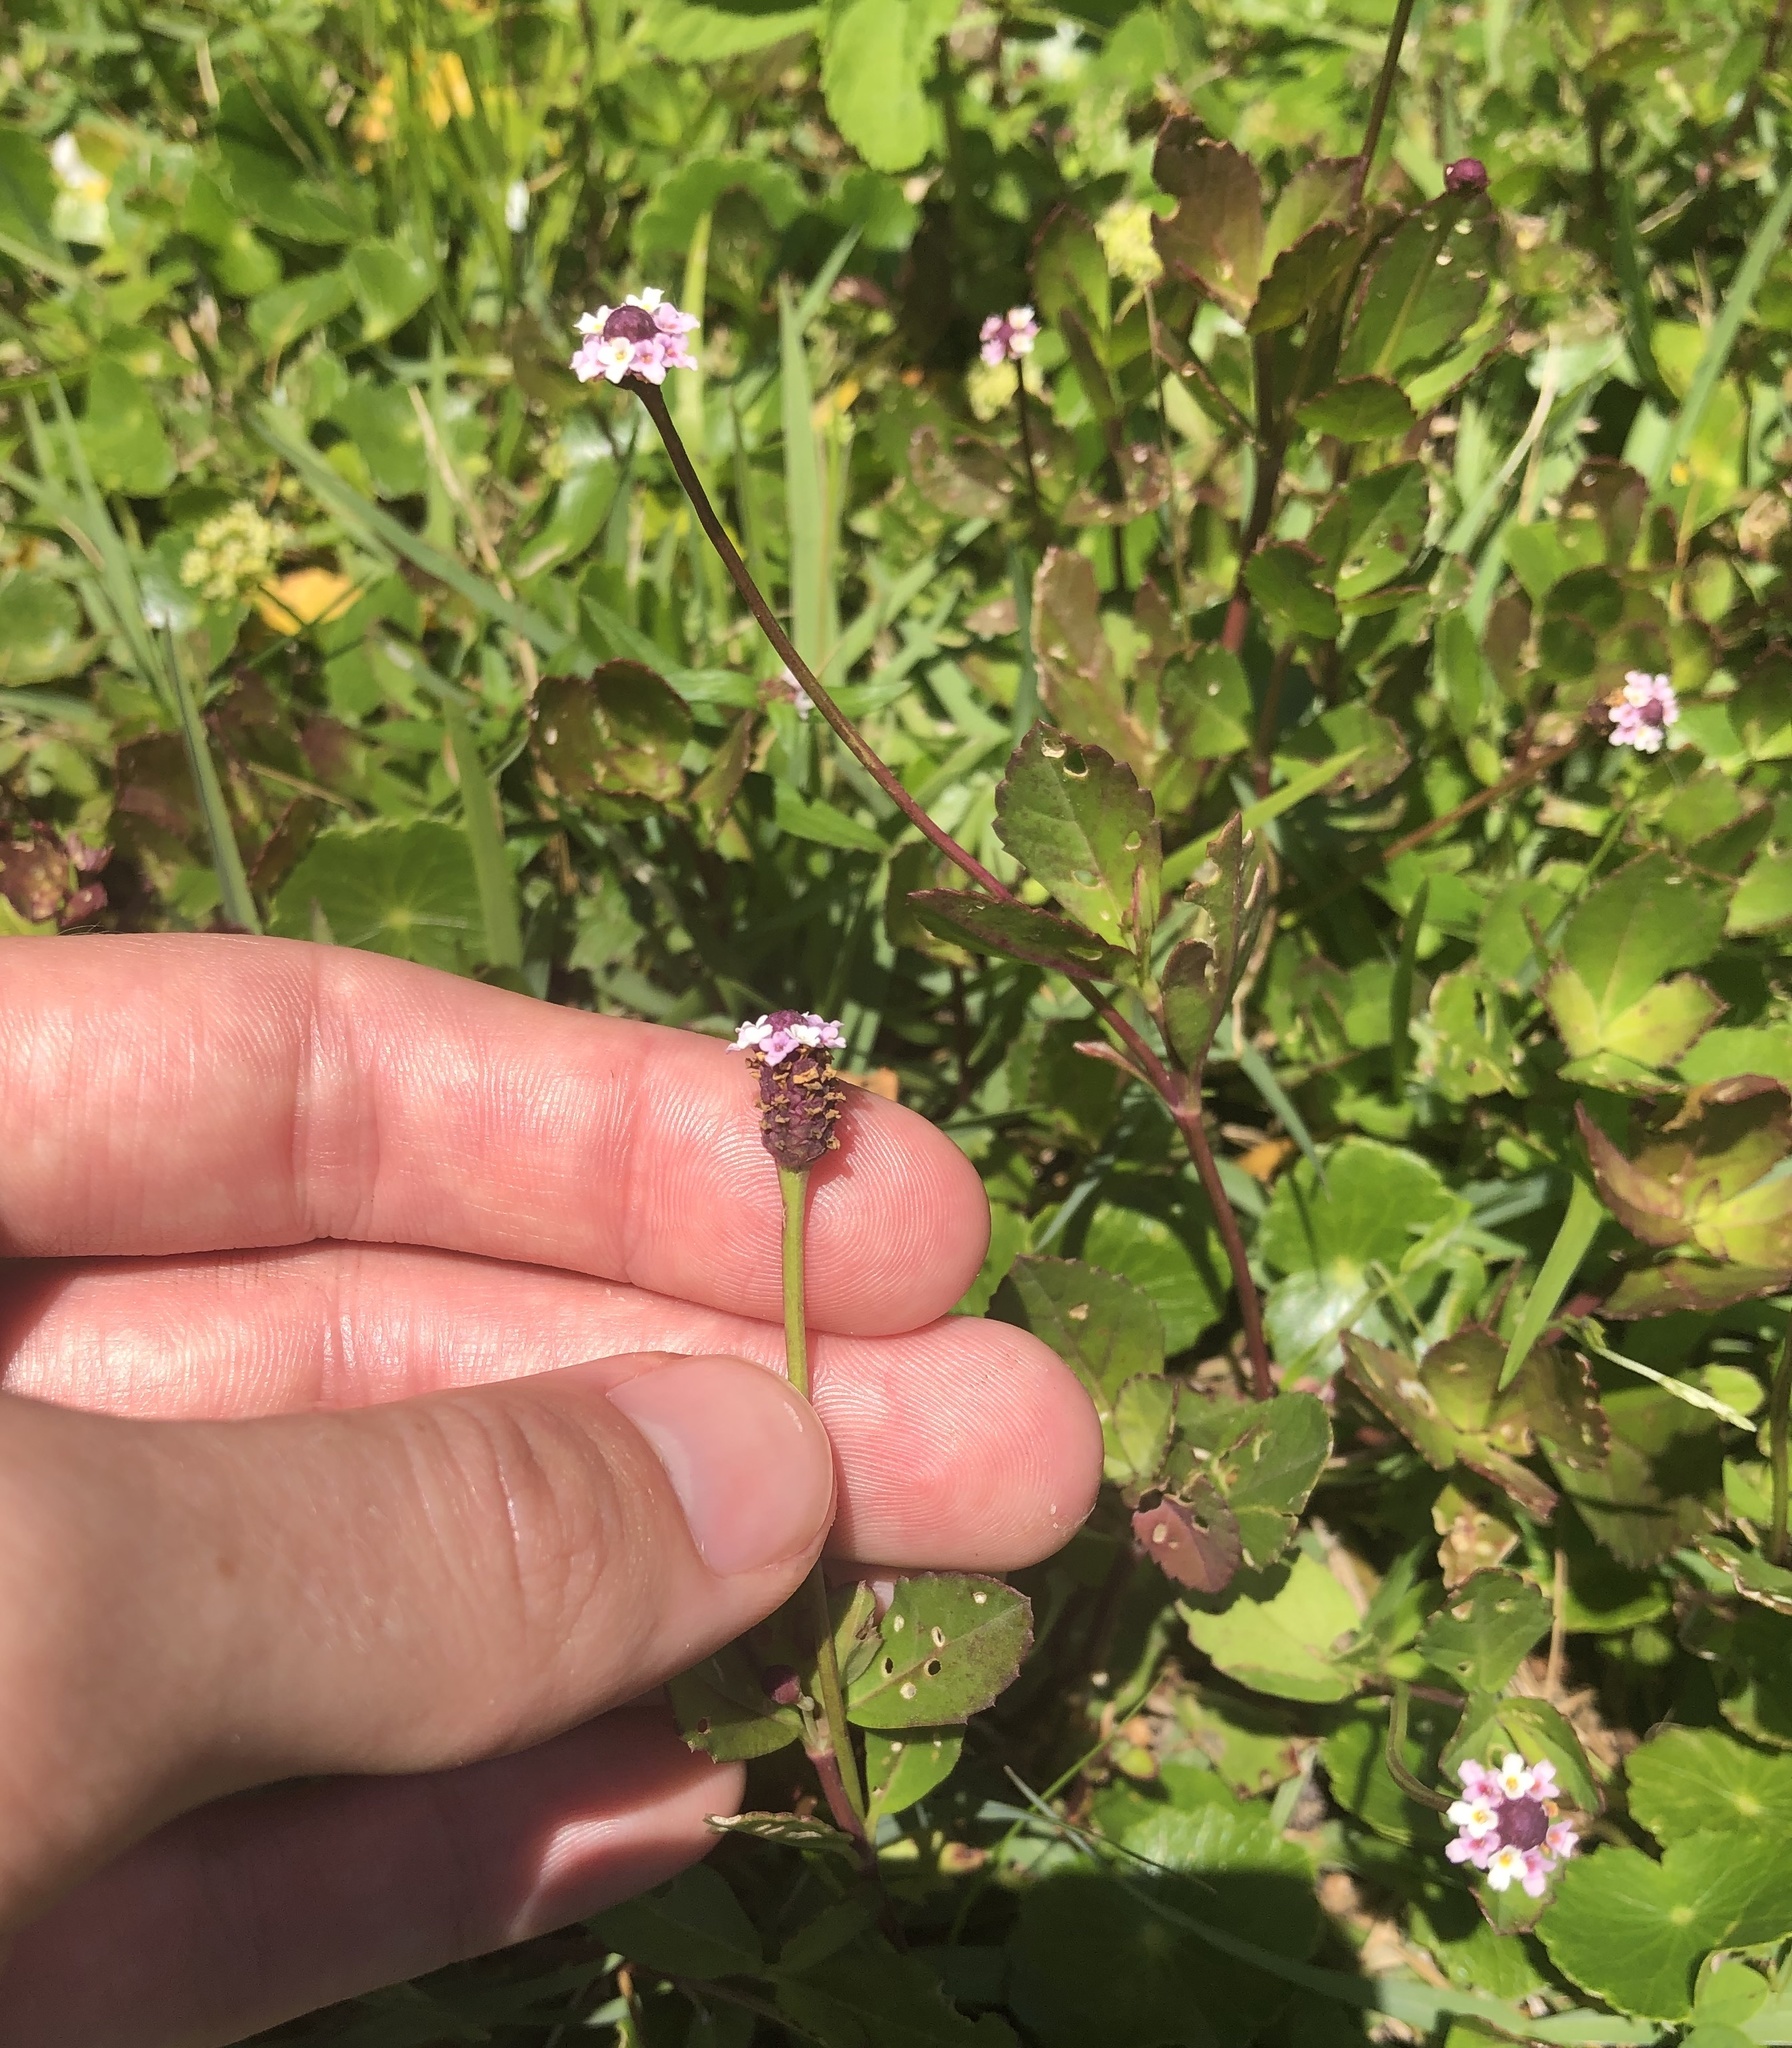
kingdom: Plantae
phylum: Tracheophyta
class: Magnoliopsida
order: Lamiales
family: Verbenaceae
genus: Phyla
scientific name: Phyla nodiflora
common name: Frogfruit
